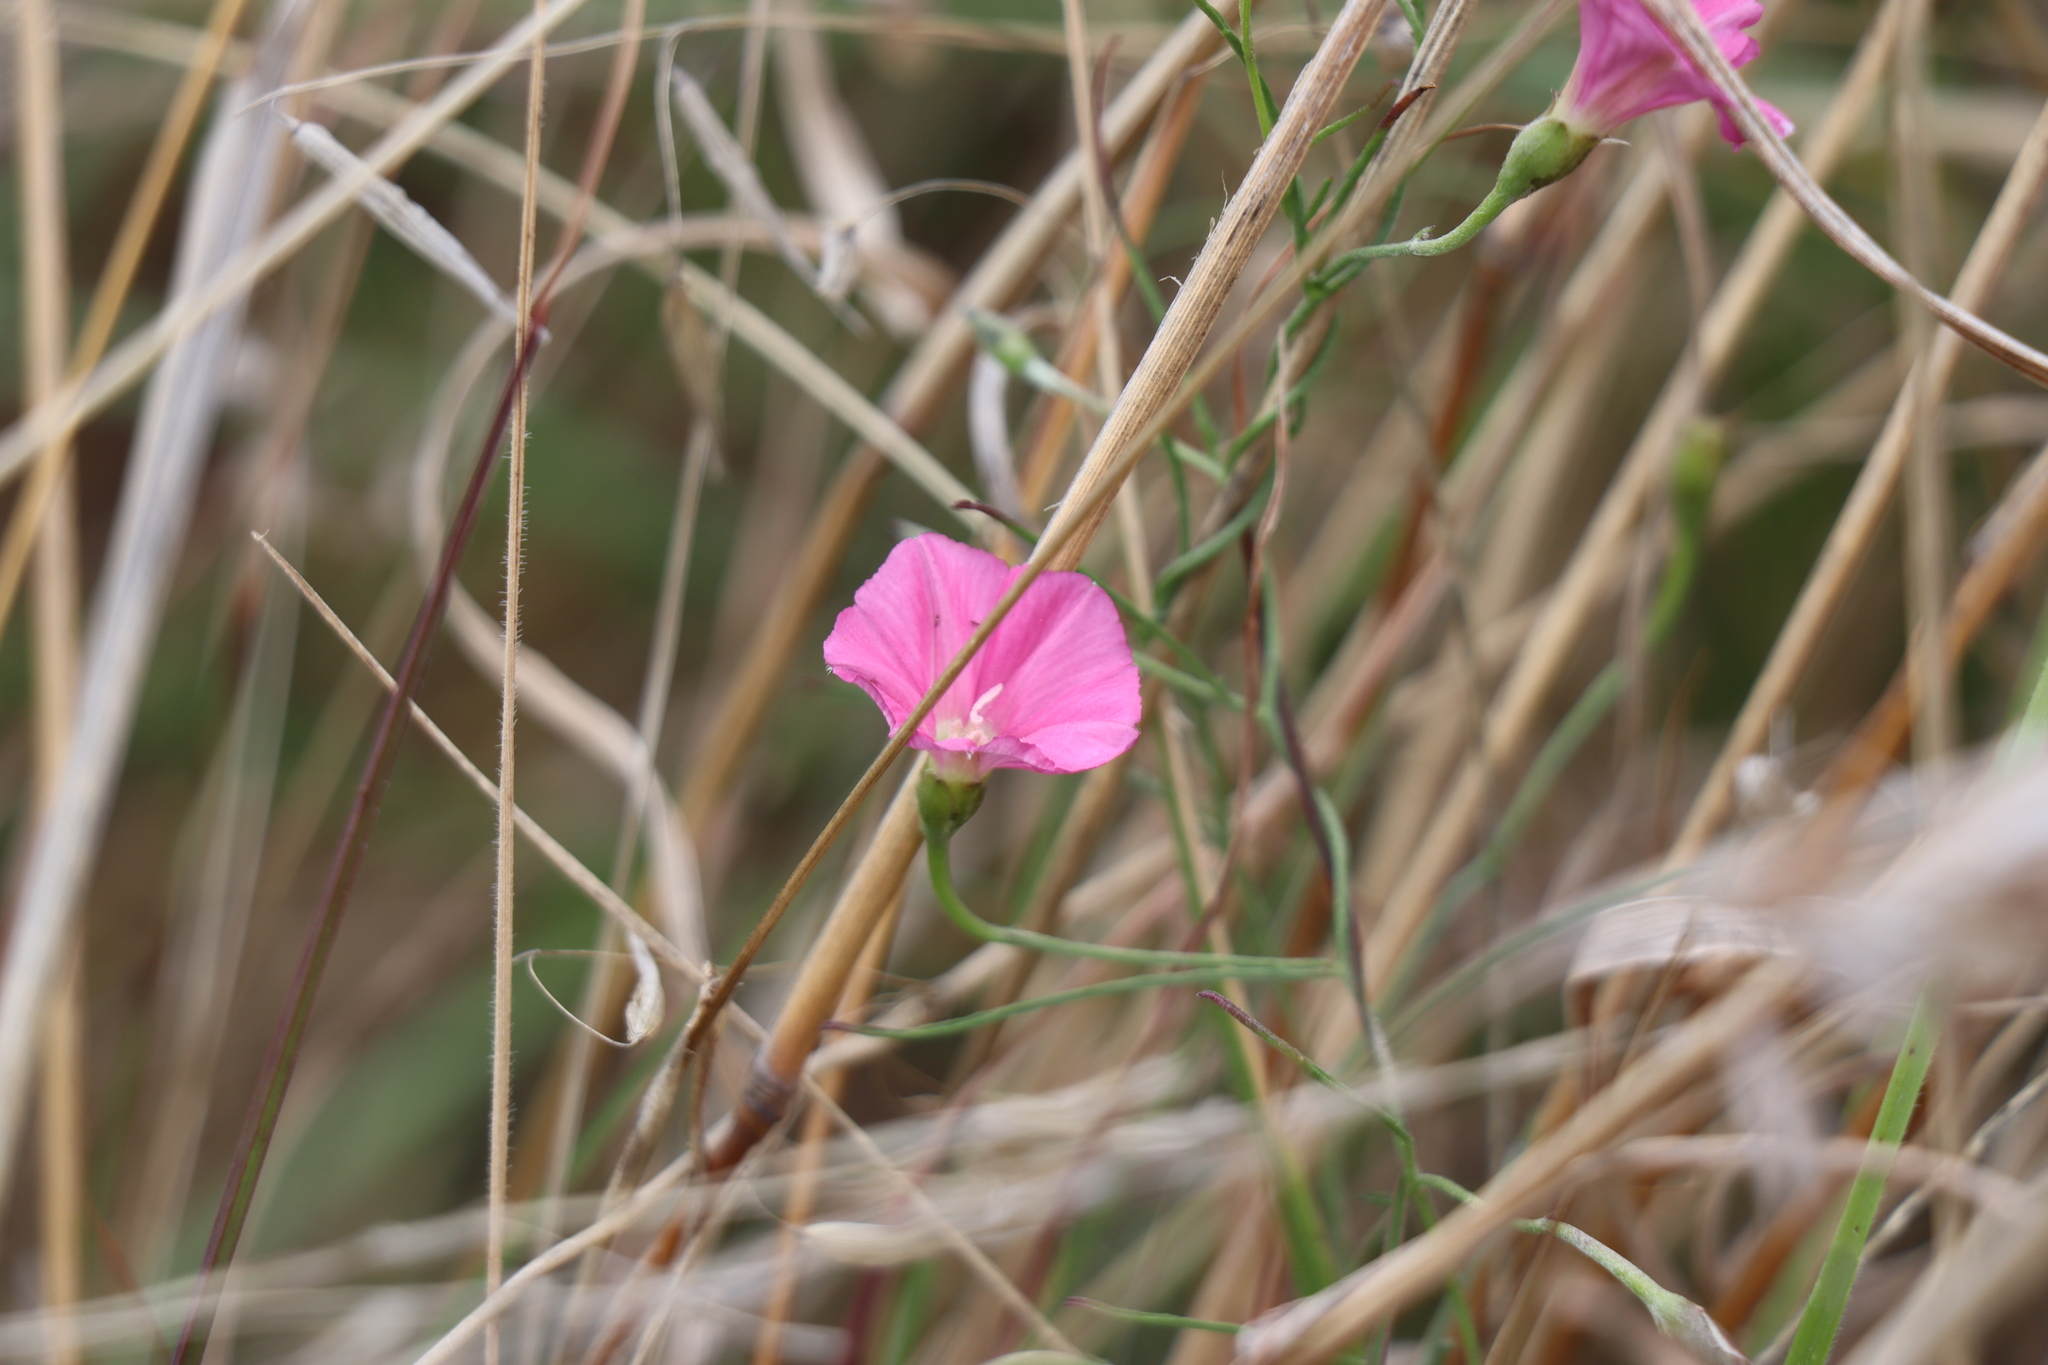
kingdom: Plantae
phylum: Tracheophyta
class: Magnoliopsida
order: Solanales
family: Convolvulaceae
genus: Convolvulus
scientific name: Convolvulus angustissimus
